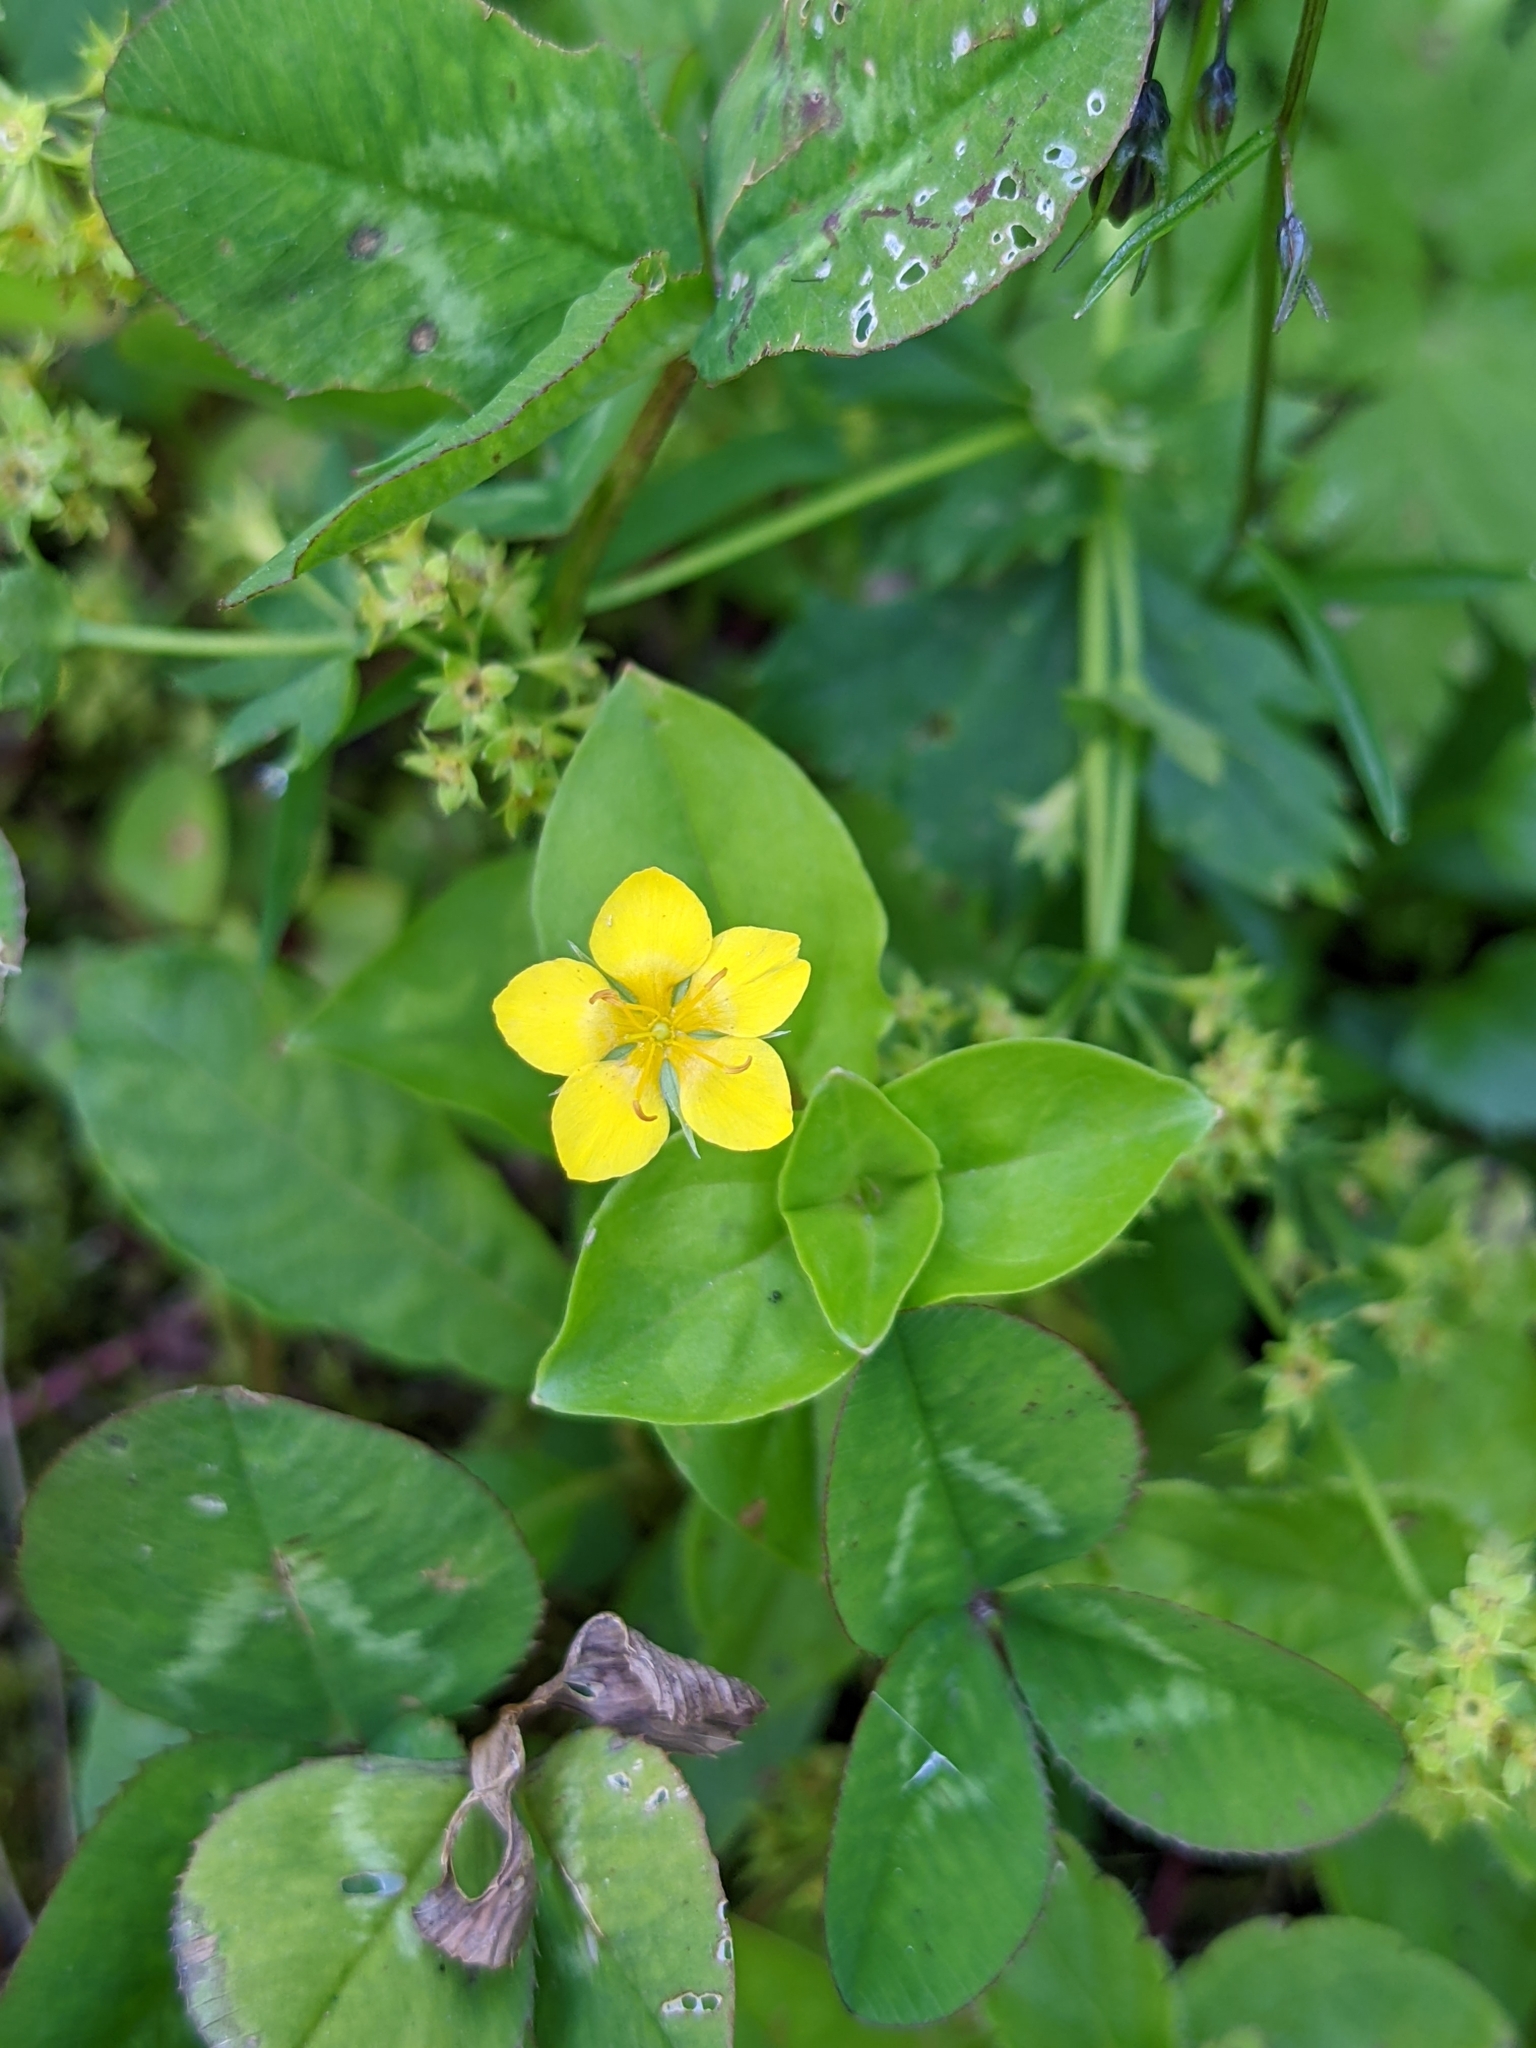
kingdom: Plantae
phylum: Tracheophyta
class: Magnoliopsida
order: Ericales
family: Primulaceae
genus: Lysimachia
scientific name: Lysimachia nemorum
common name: Yellow pimpernel
